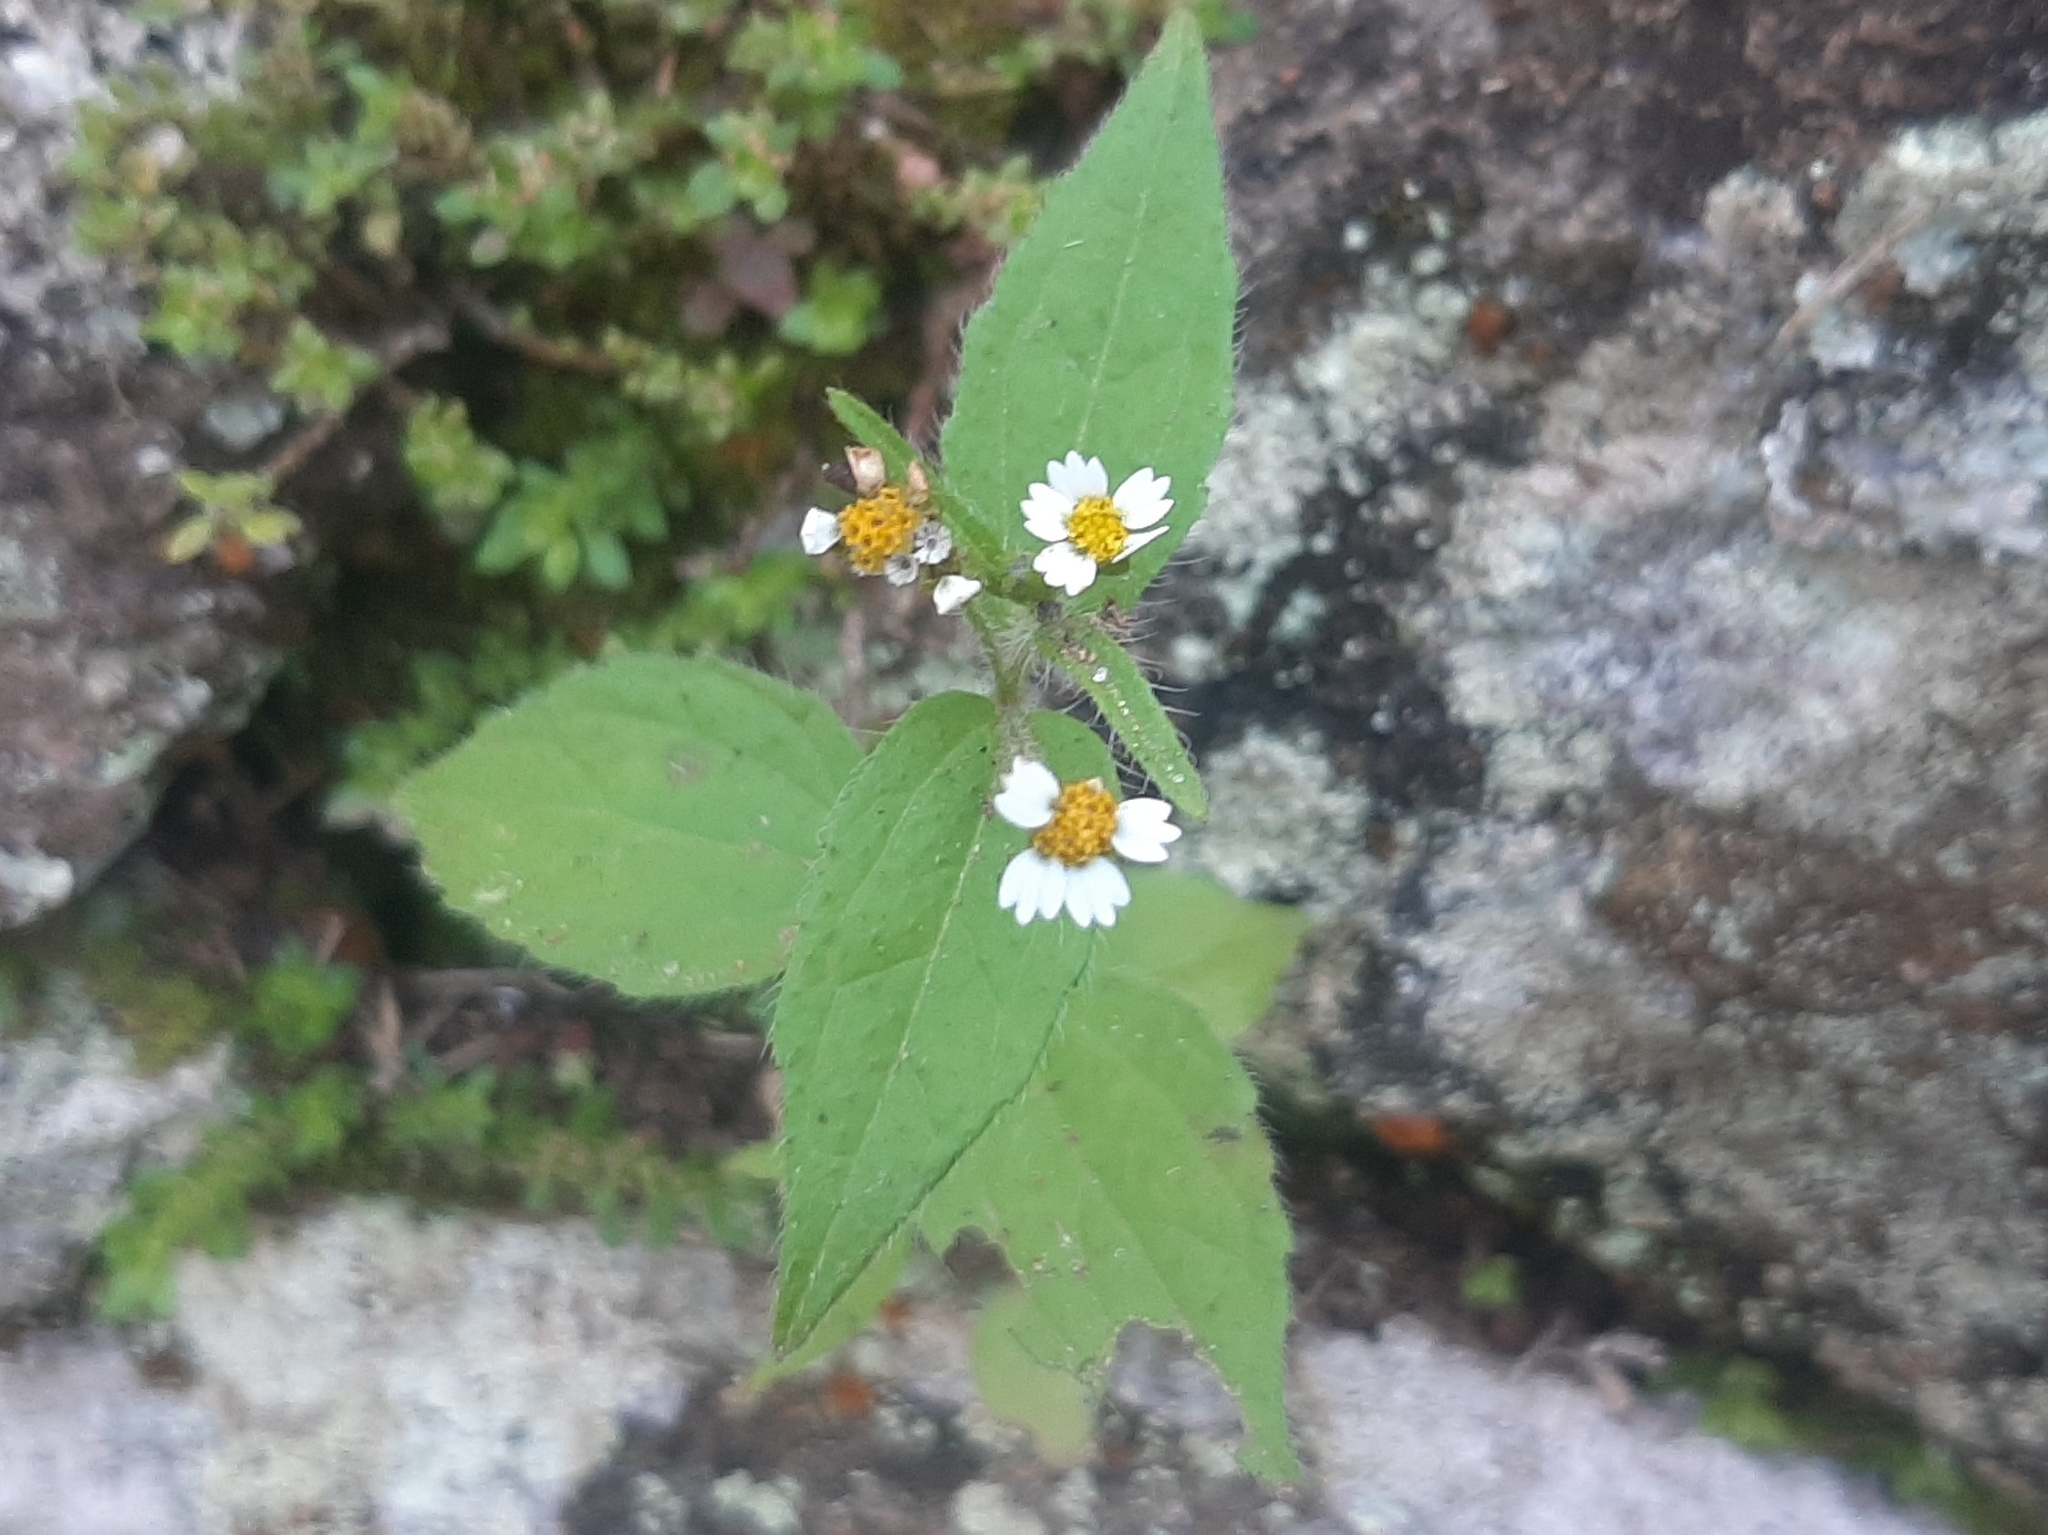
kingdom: Plantae
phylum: Tracheophyta
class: Magnoliopsida
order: Asterales
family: Asteraceae
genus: Galinsoga
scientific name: Galinsoga quadriradiata
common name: Shaggy soldier
